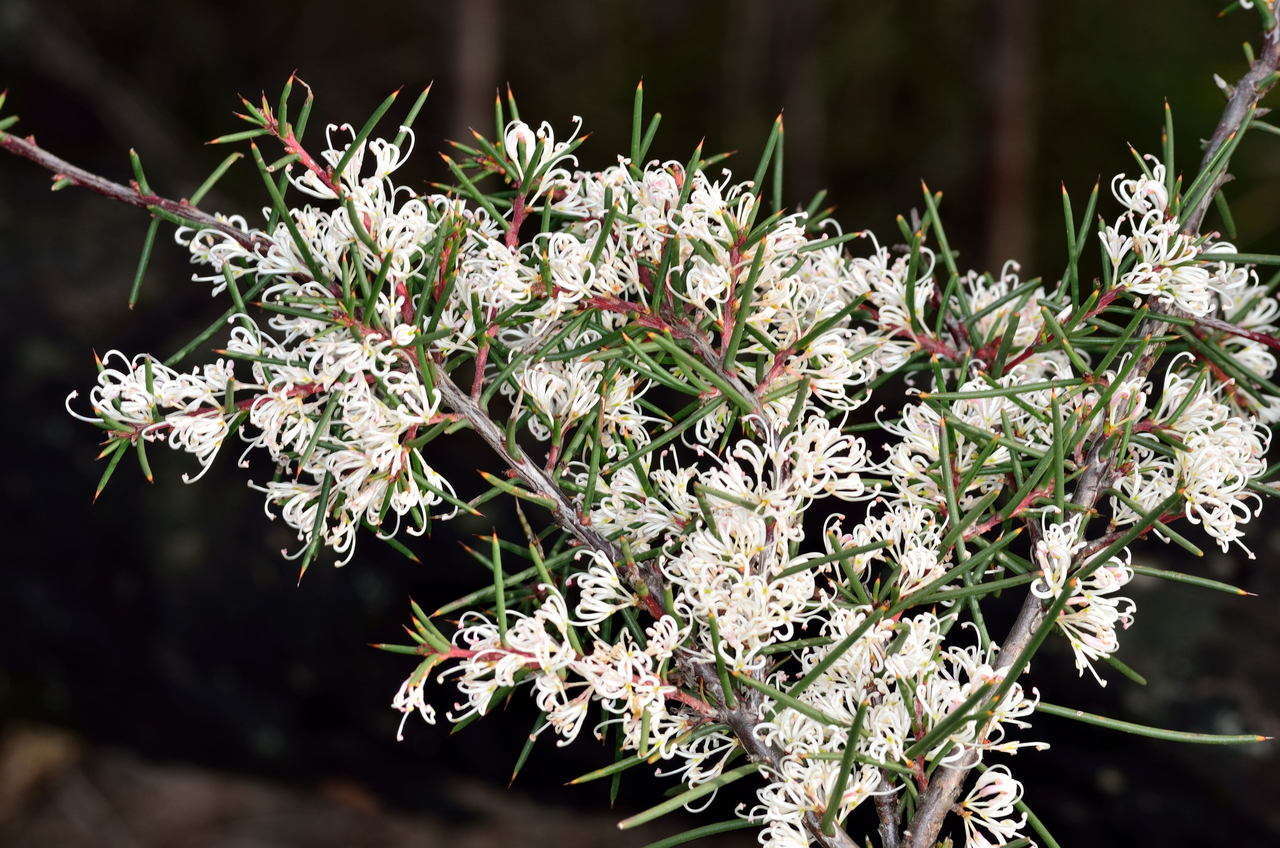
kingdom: Plantae
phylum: Tracheophyta
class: Magnoliopsida
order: Proteales
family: Proteaceae
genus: Hakea
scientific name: Hakea decurrens
